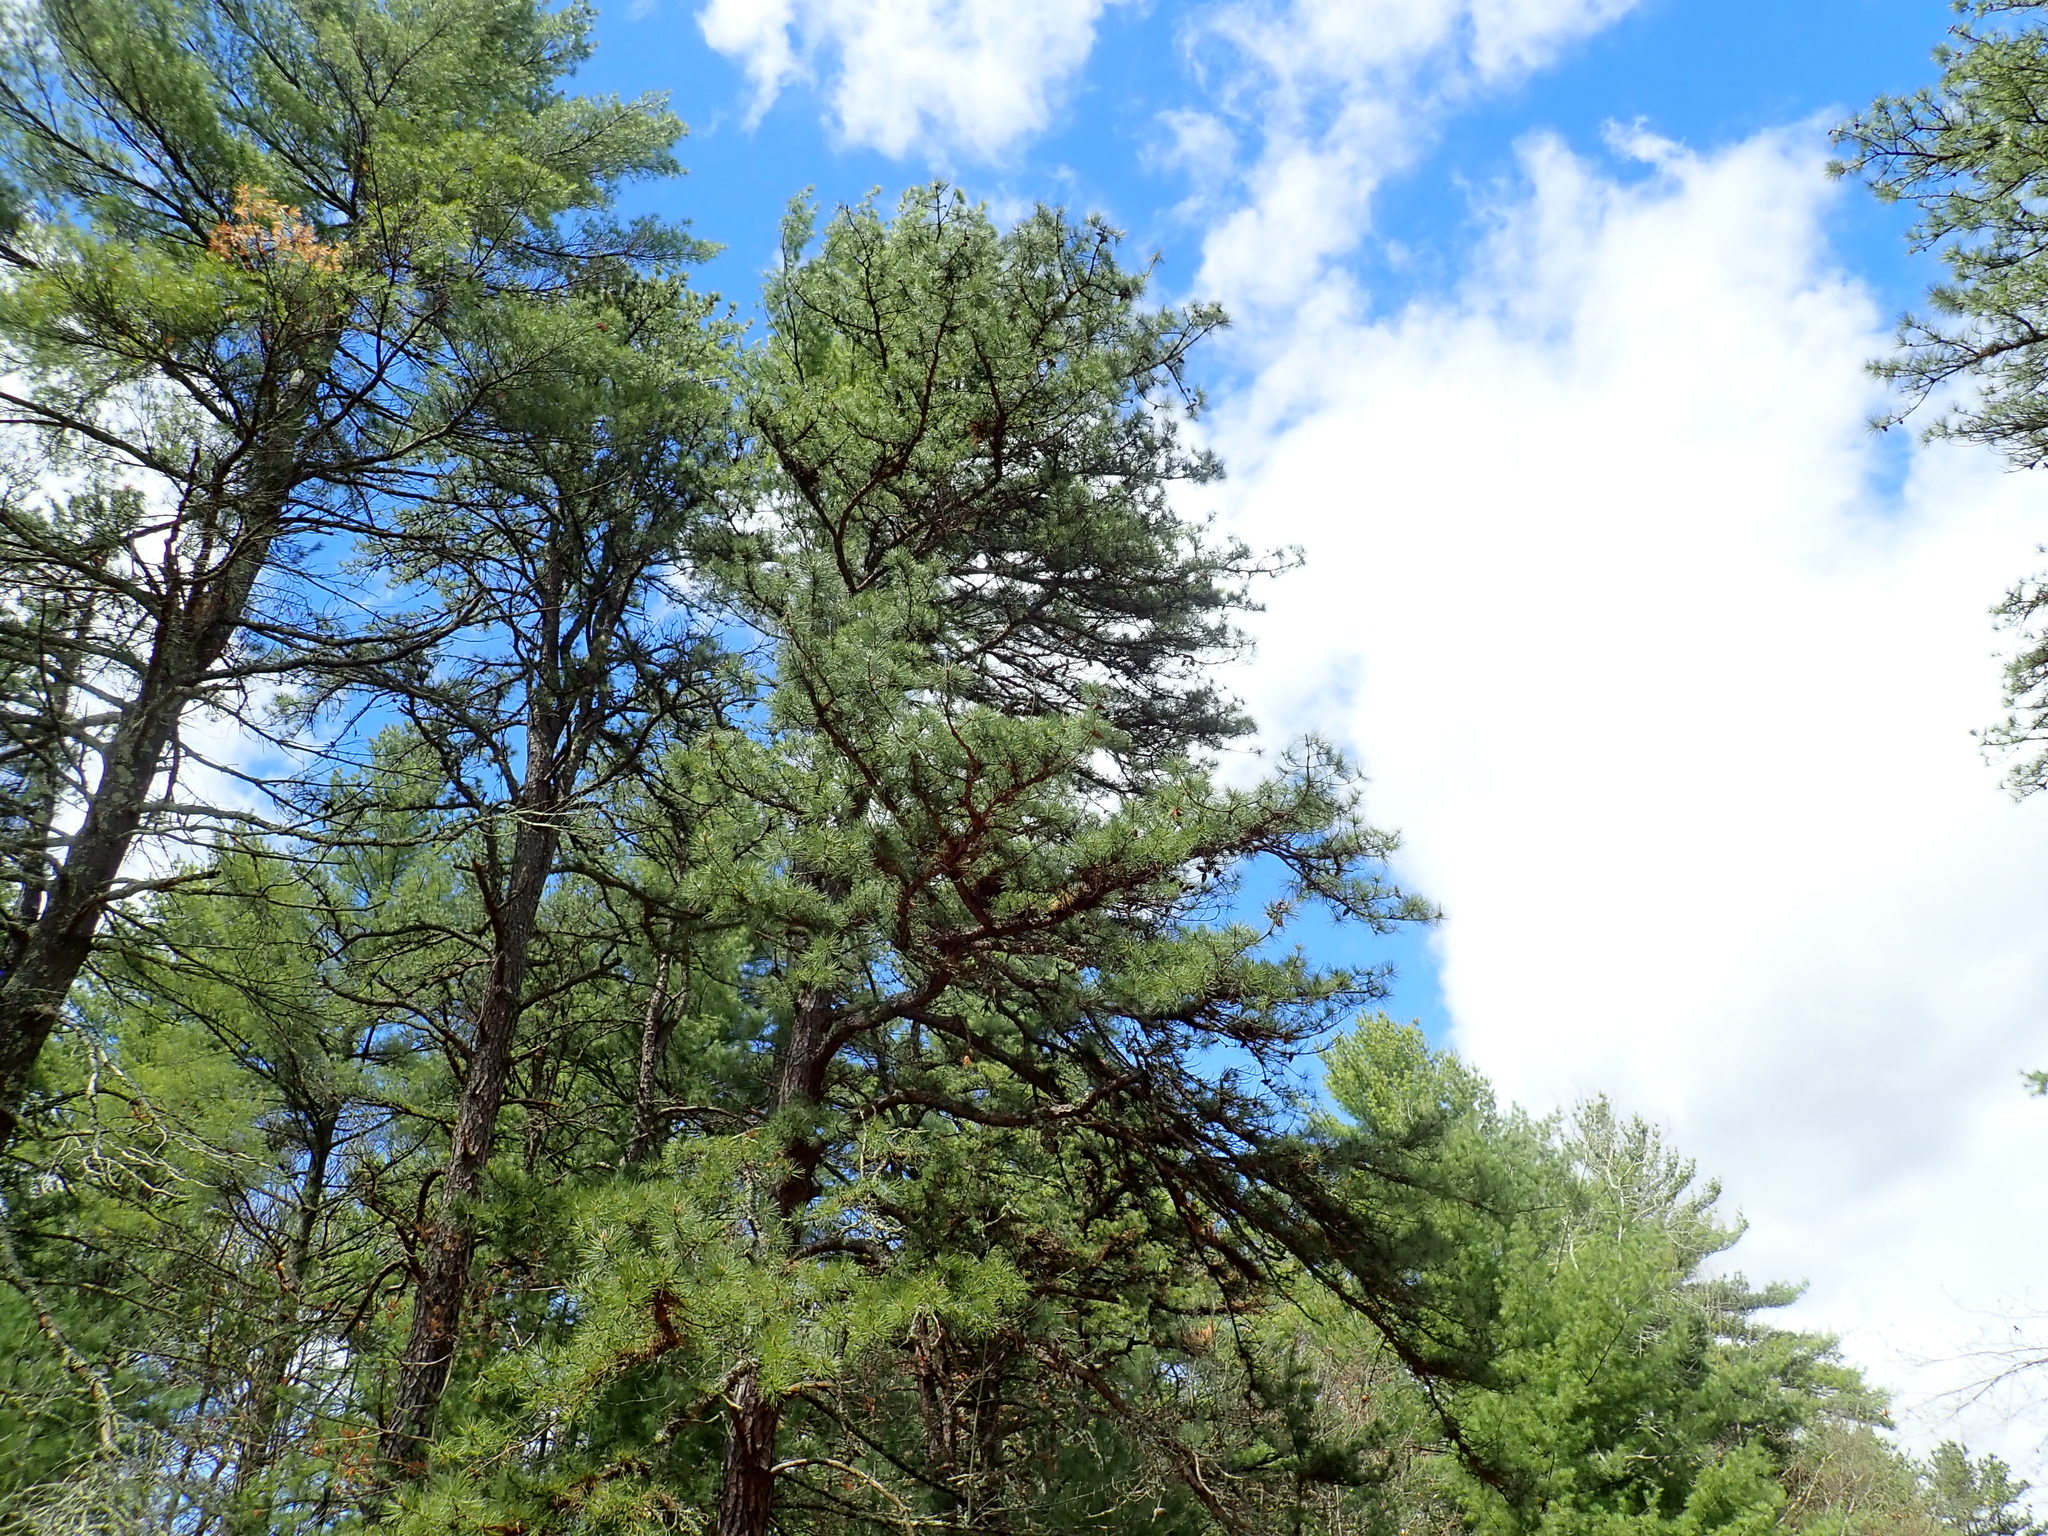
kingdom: Plantae
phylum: Tracheophyta
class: Pinopsida
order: Pinales
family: Pinaceae
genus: Pinus
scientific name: Pinus rigida
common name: Pitch pine
